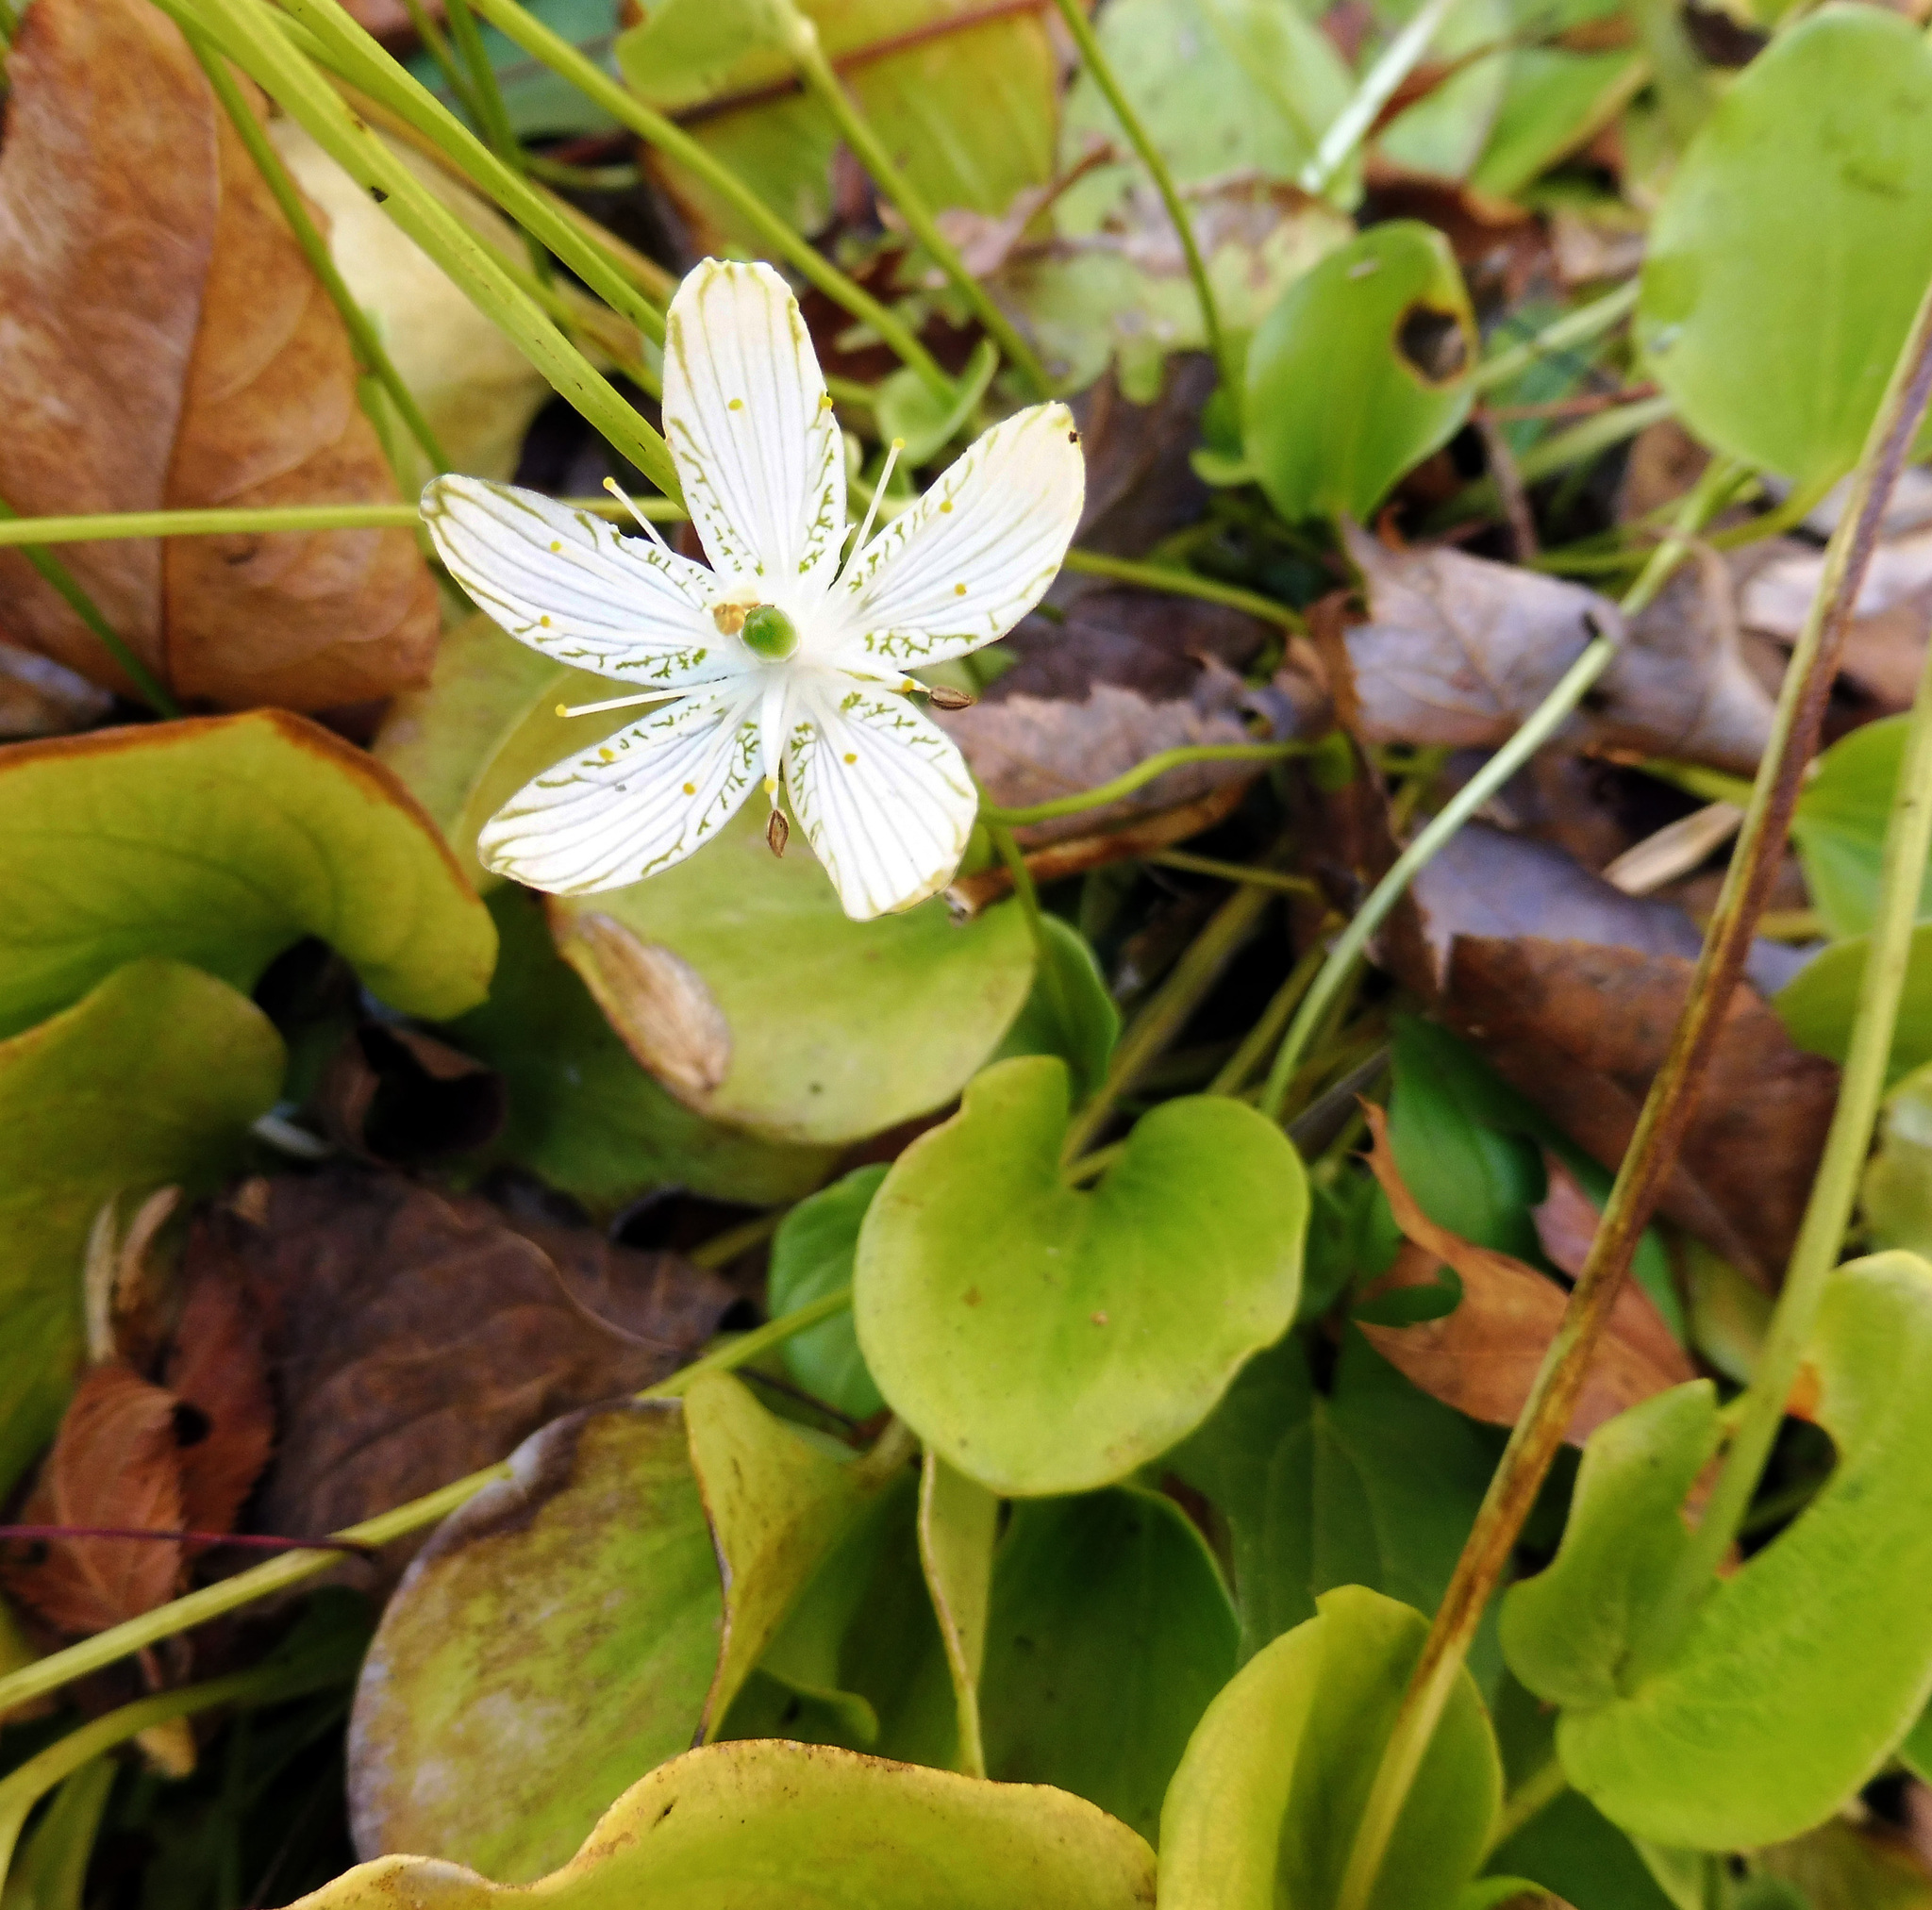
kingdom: Plantae
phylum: Tracheophyta
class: Magnoliopsida
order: Celastrales
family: Parnassiaceae
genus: Parnassia
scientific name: Parnassia grandifolia
